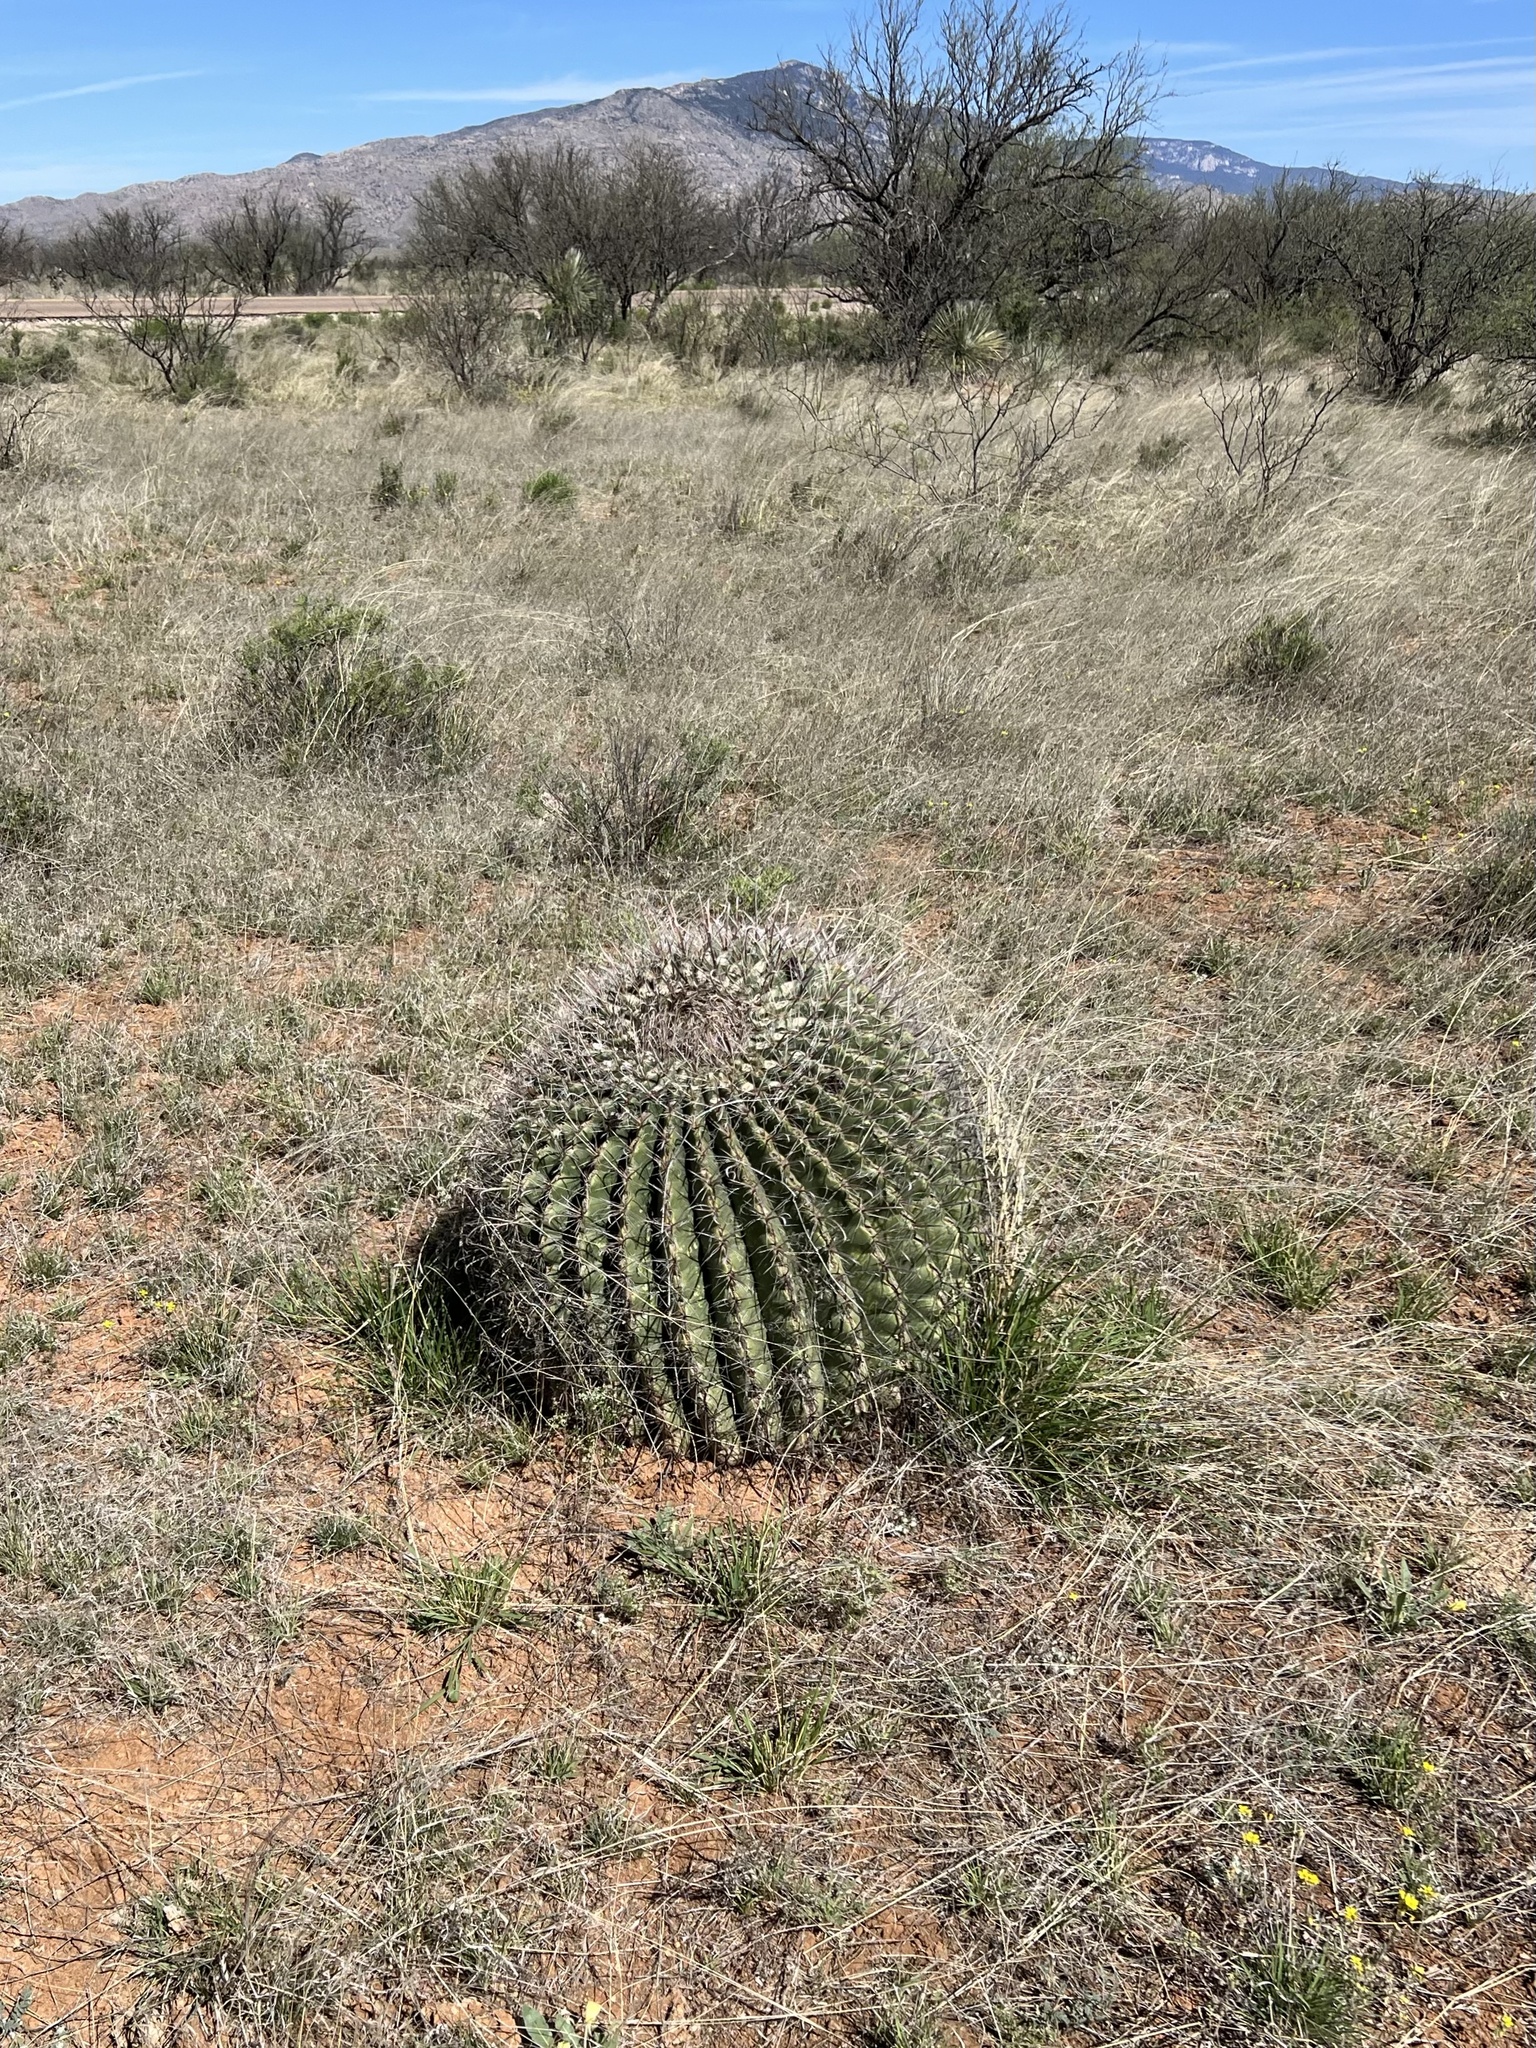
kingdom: Plantae
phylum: Tracheophyta
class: Magnoliopsida
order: Caryophyllales
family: Cactaceae
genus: Ferocactus
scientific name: Ferocactus wislizeni
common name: Candy barrel cactus
